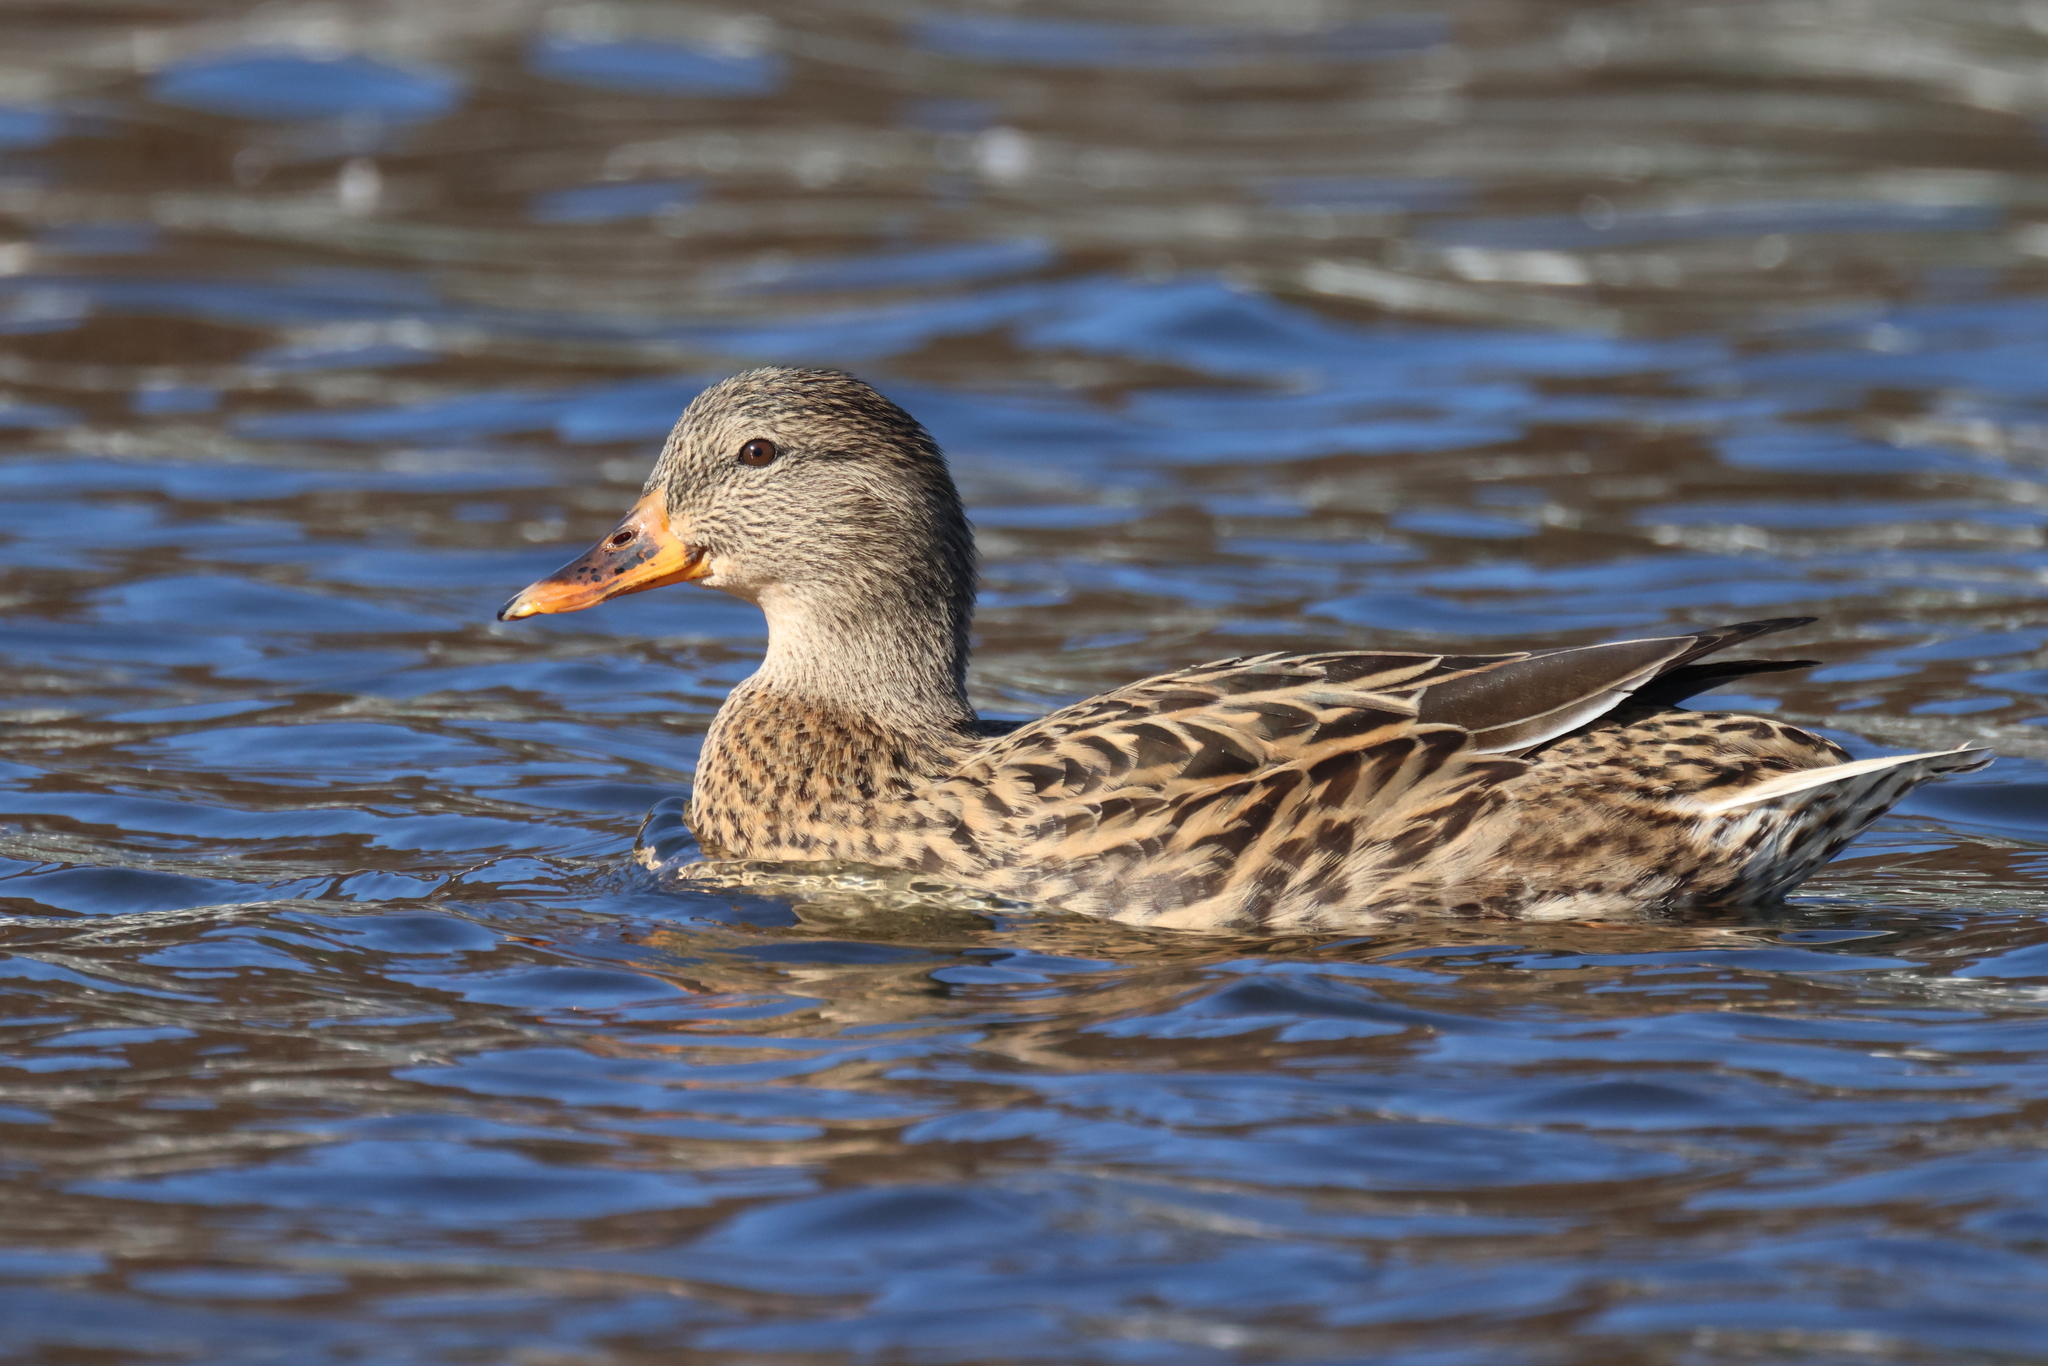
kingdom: Animalia
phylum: Chordata
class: Aves
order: Anseriformes
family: Anatidae
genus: Anas
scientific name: Anas platyrhynchos
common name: Mallard
